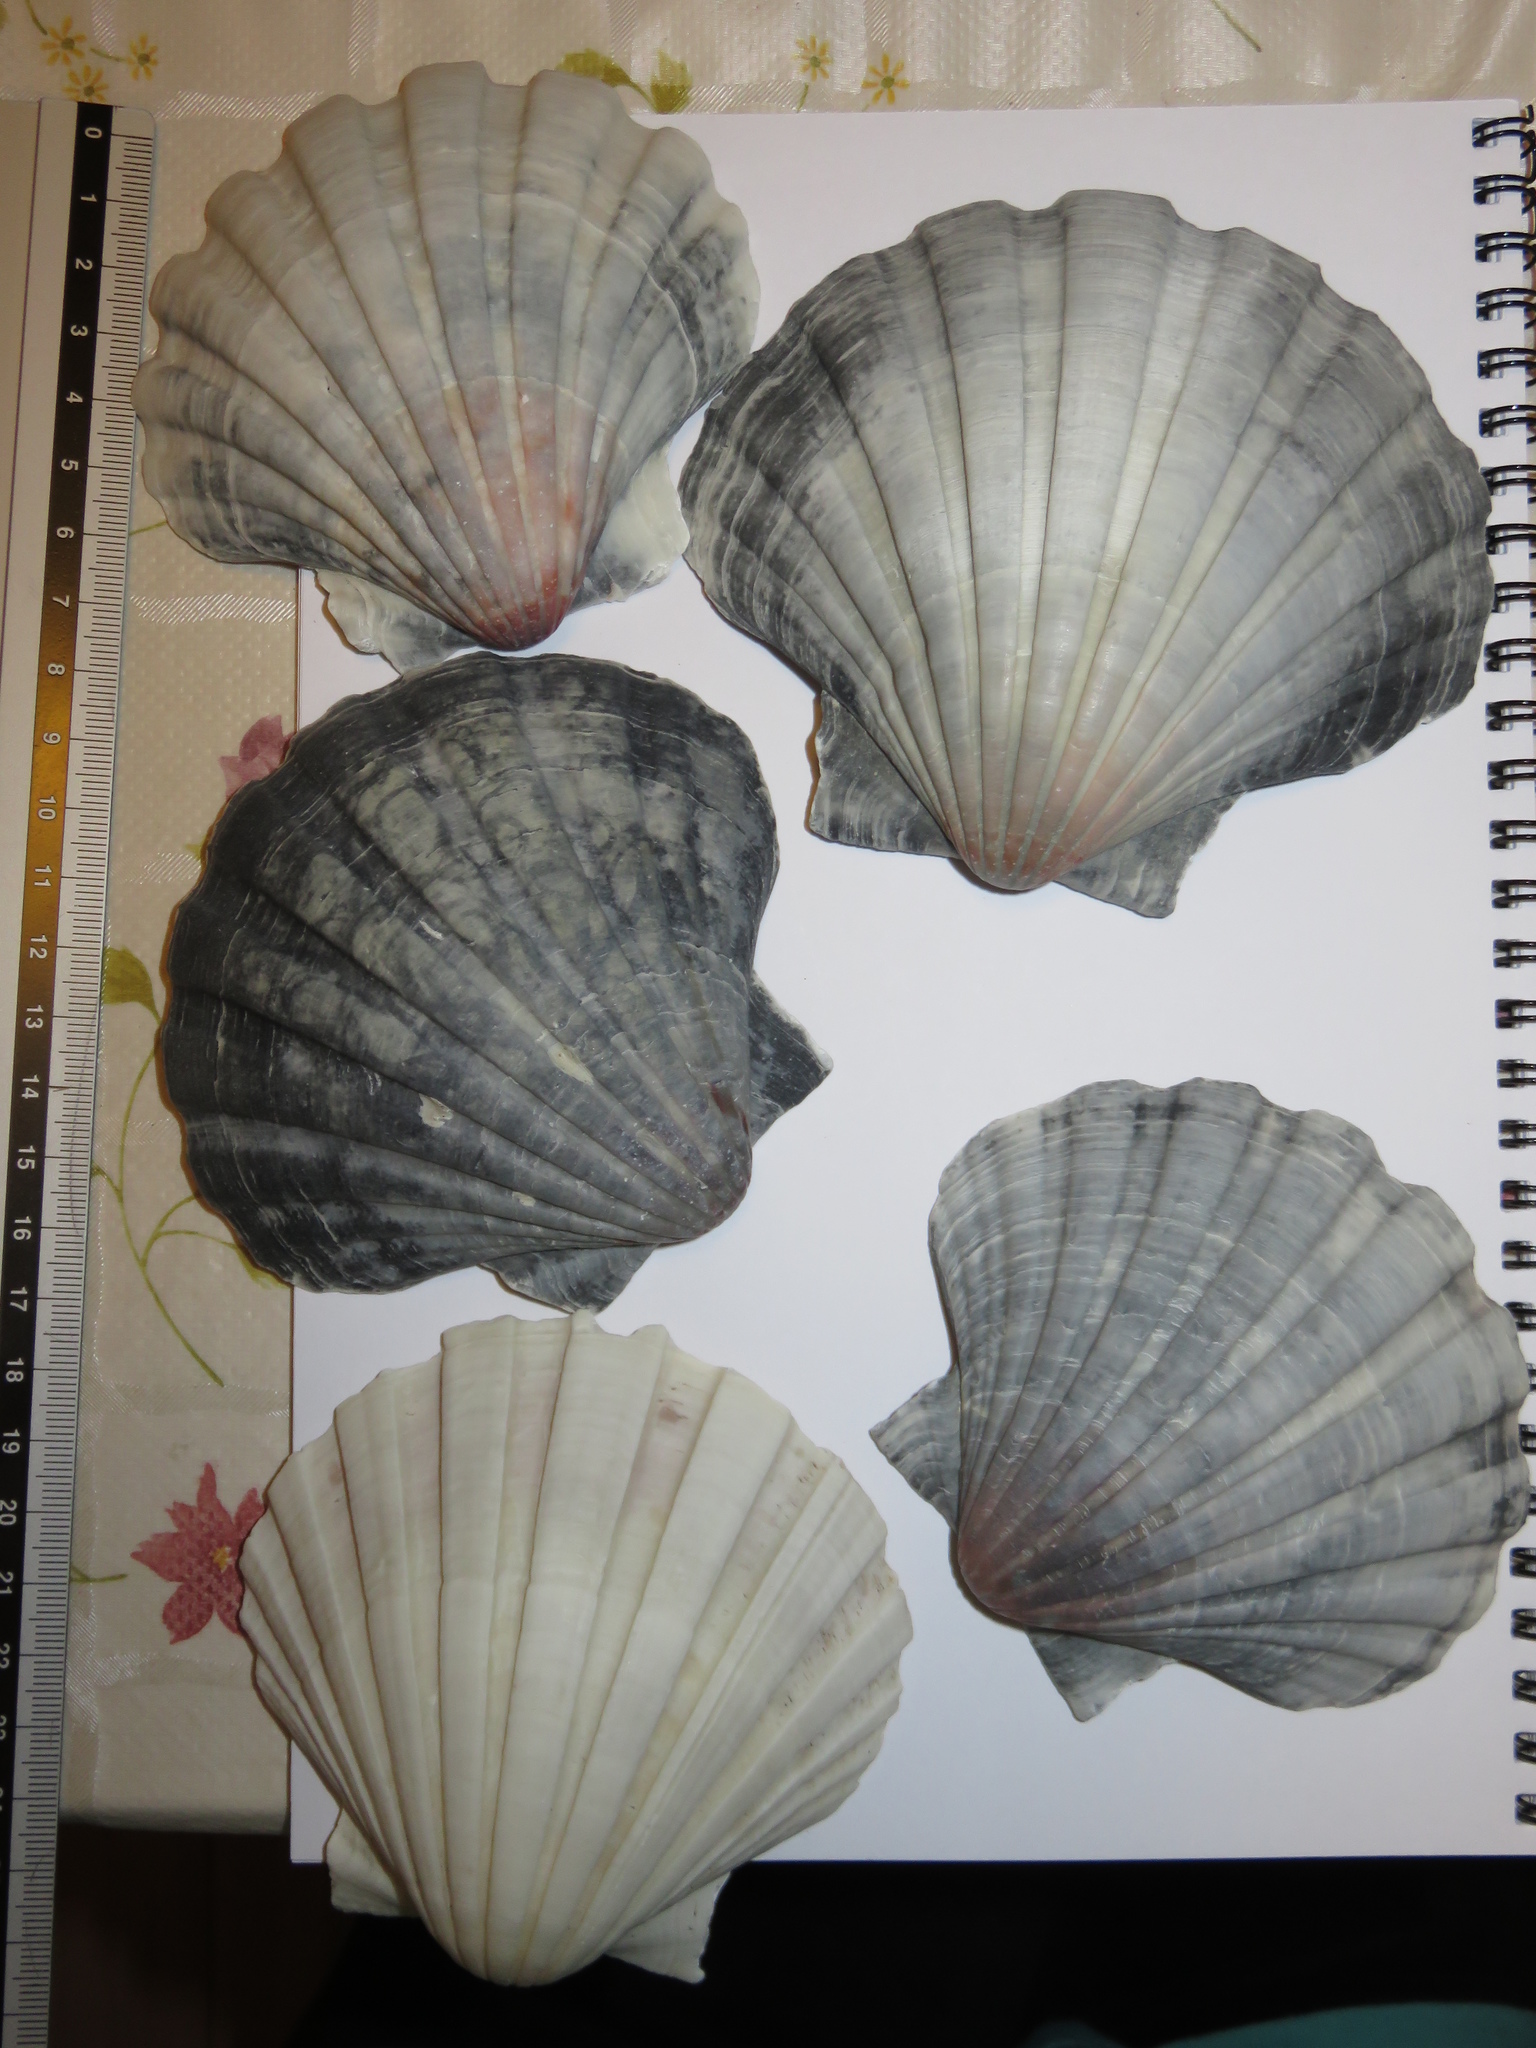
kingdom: Animalia
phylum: Mollusca
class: Bivalvia
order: Pectinida
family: Pectinidae
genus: Pecten
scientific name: Pecten albicans
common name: Japanese baking scallop
